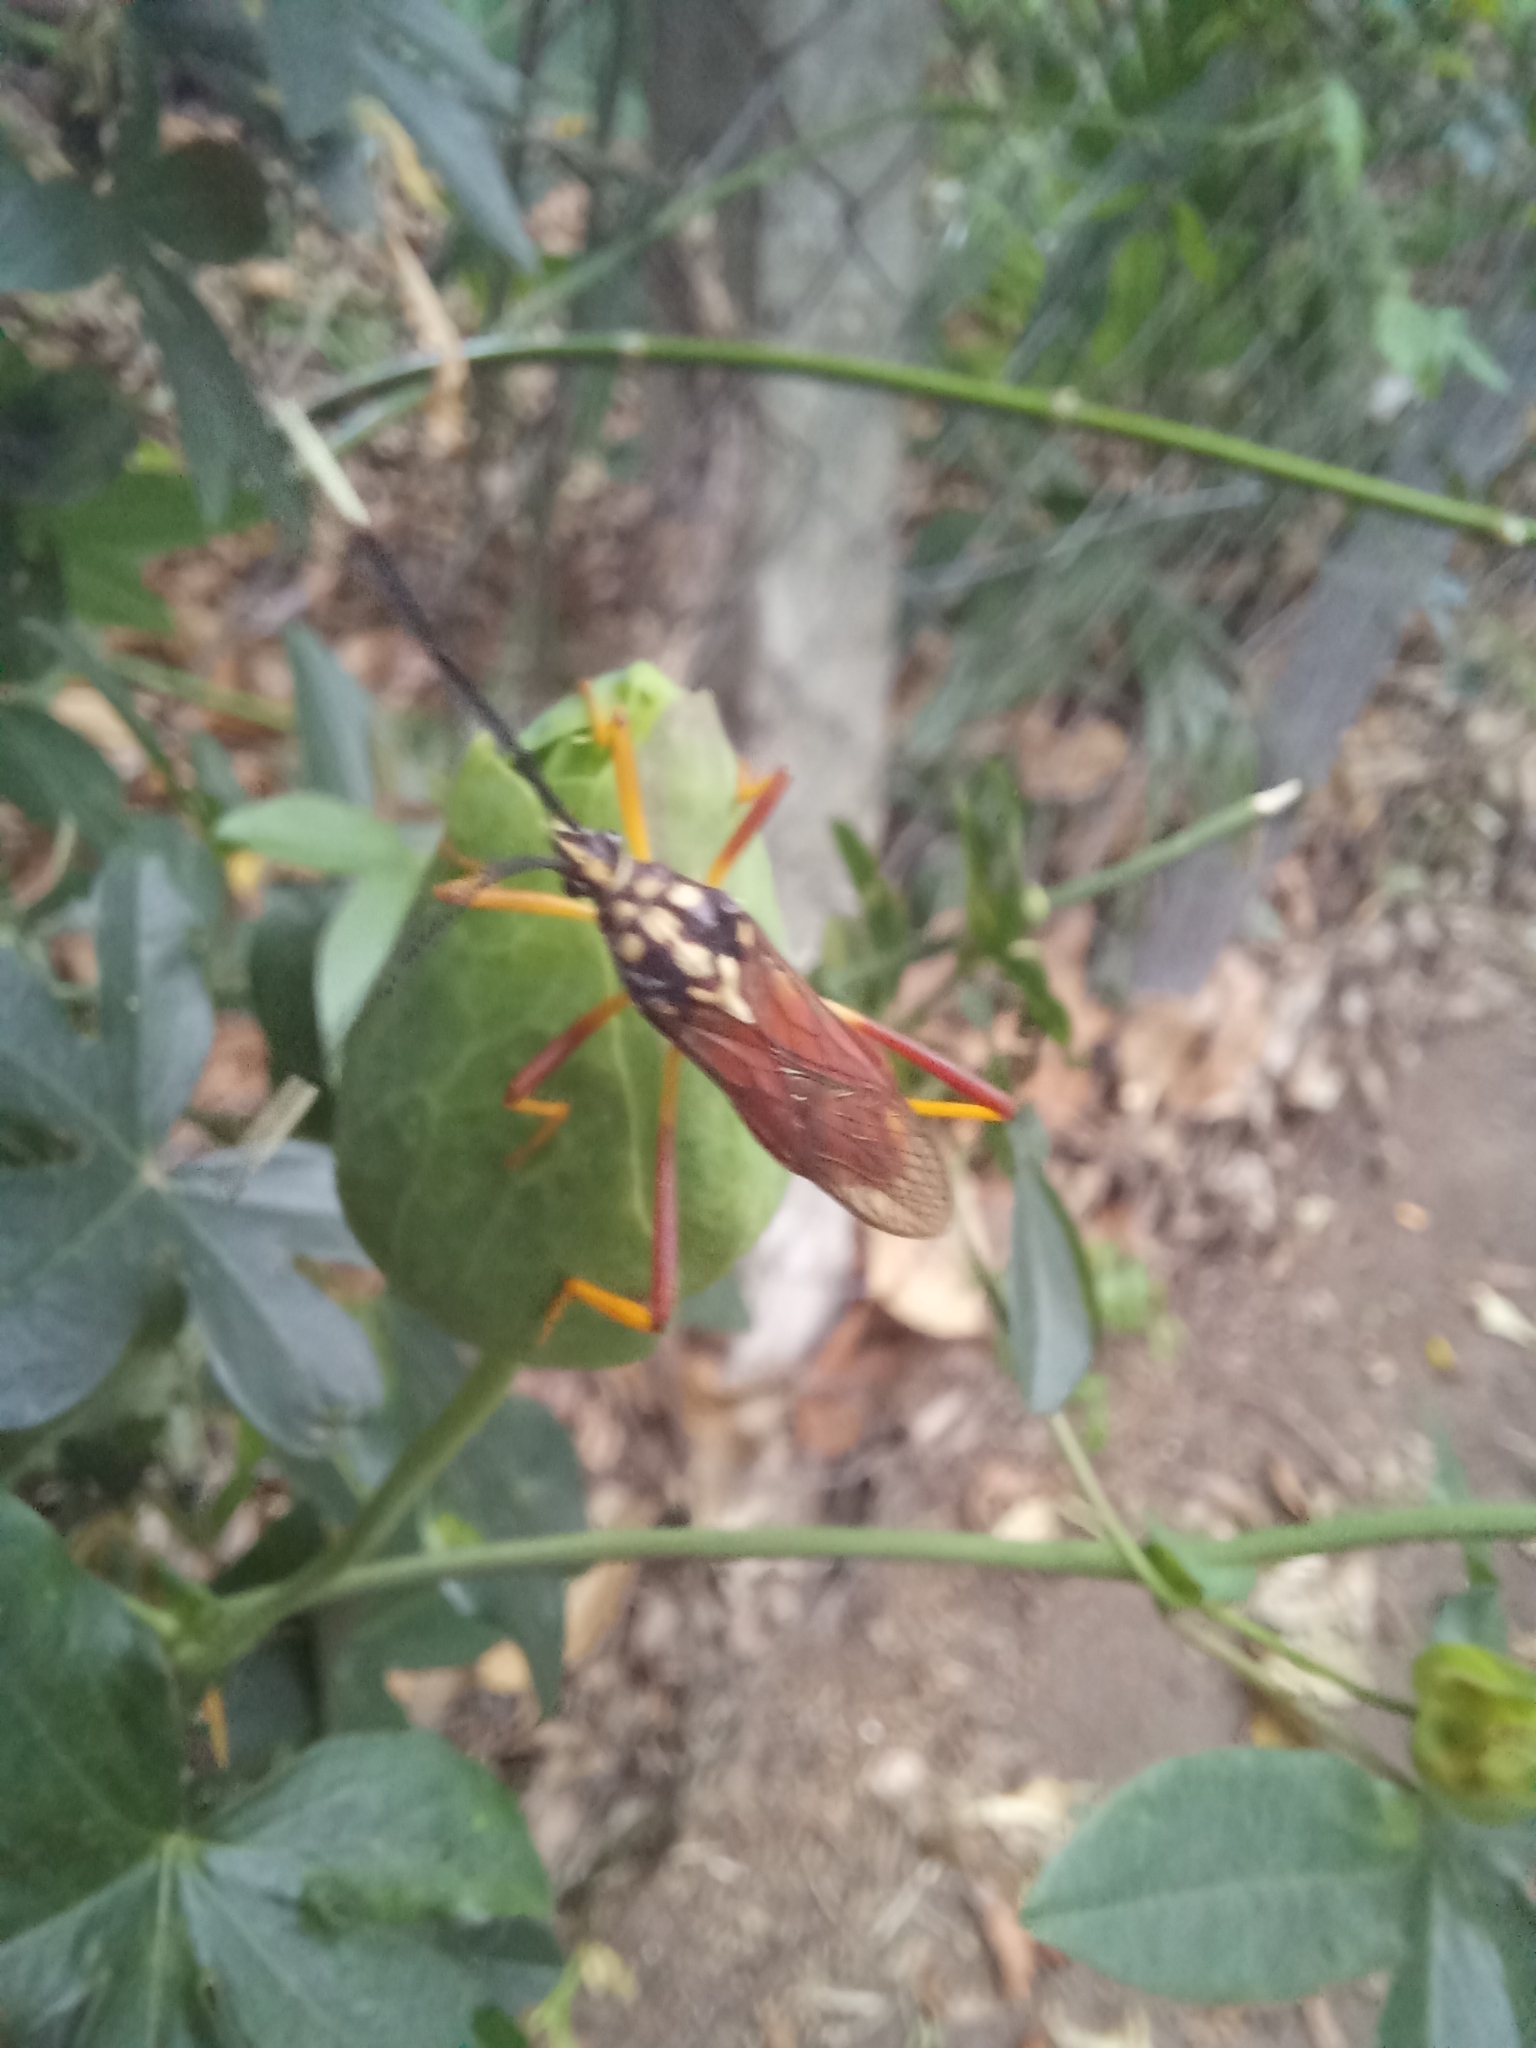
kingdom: Animalia
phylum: Arthropoda
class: Insecta
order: Hemiptera
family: Coreidae
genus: Holhymenia
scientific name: Holhymenia histrio
